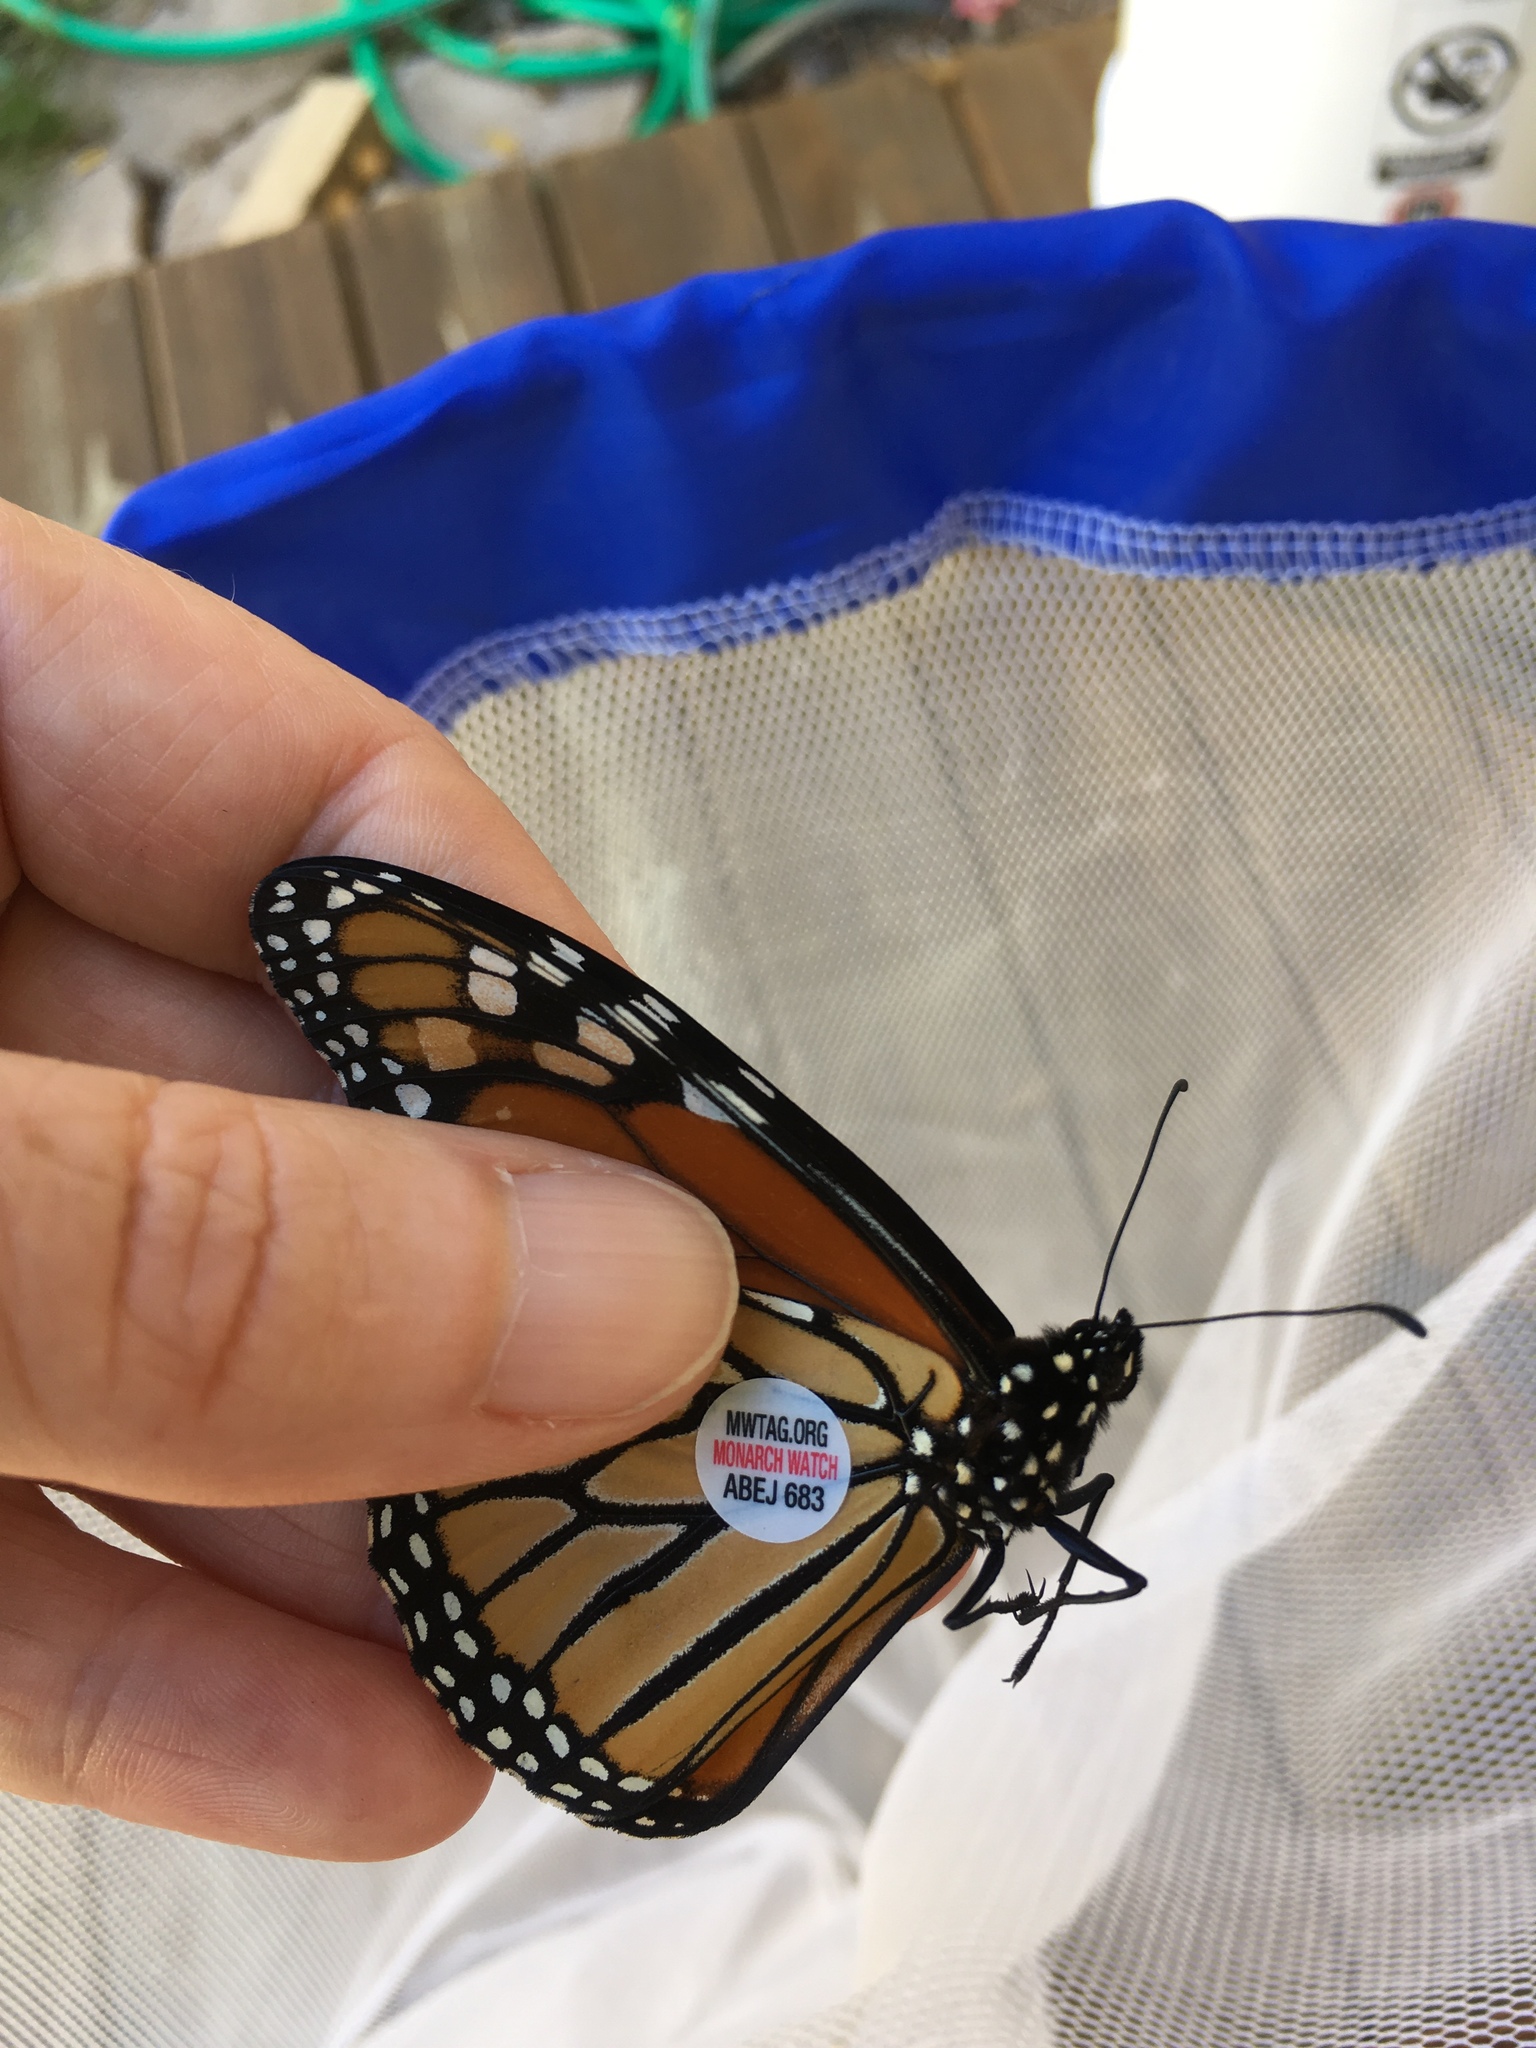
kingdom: Animalia
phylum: Arthropoda
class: Insecta
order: Lepidoptera
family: Nymphalidae
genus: Danaus
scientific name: Danaus plexippus
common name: Monarch
